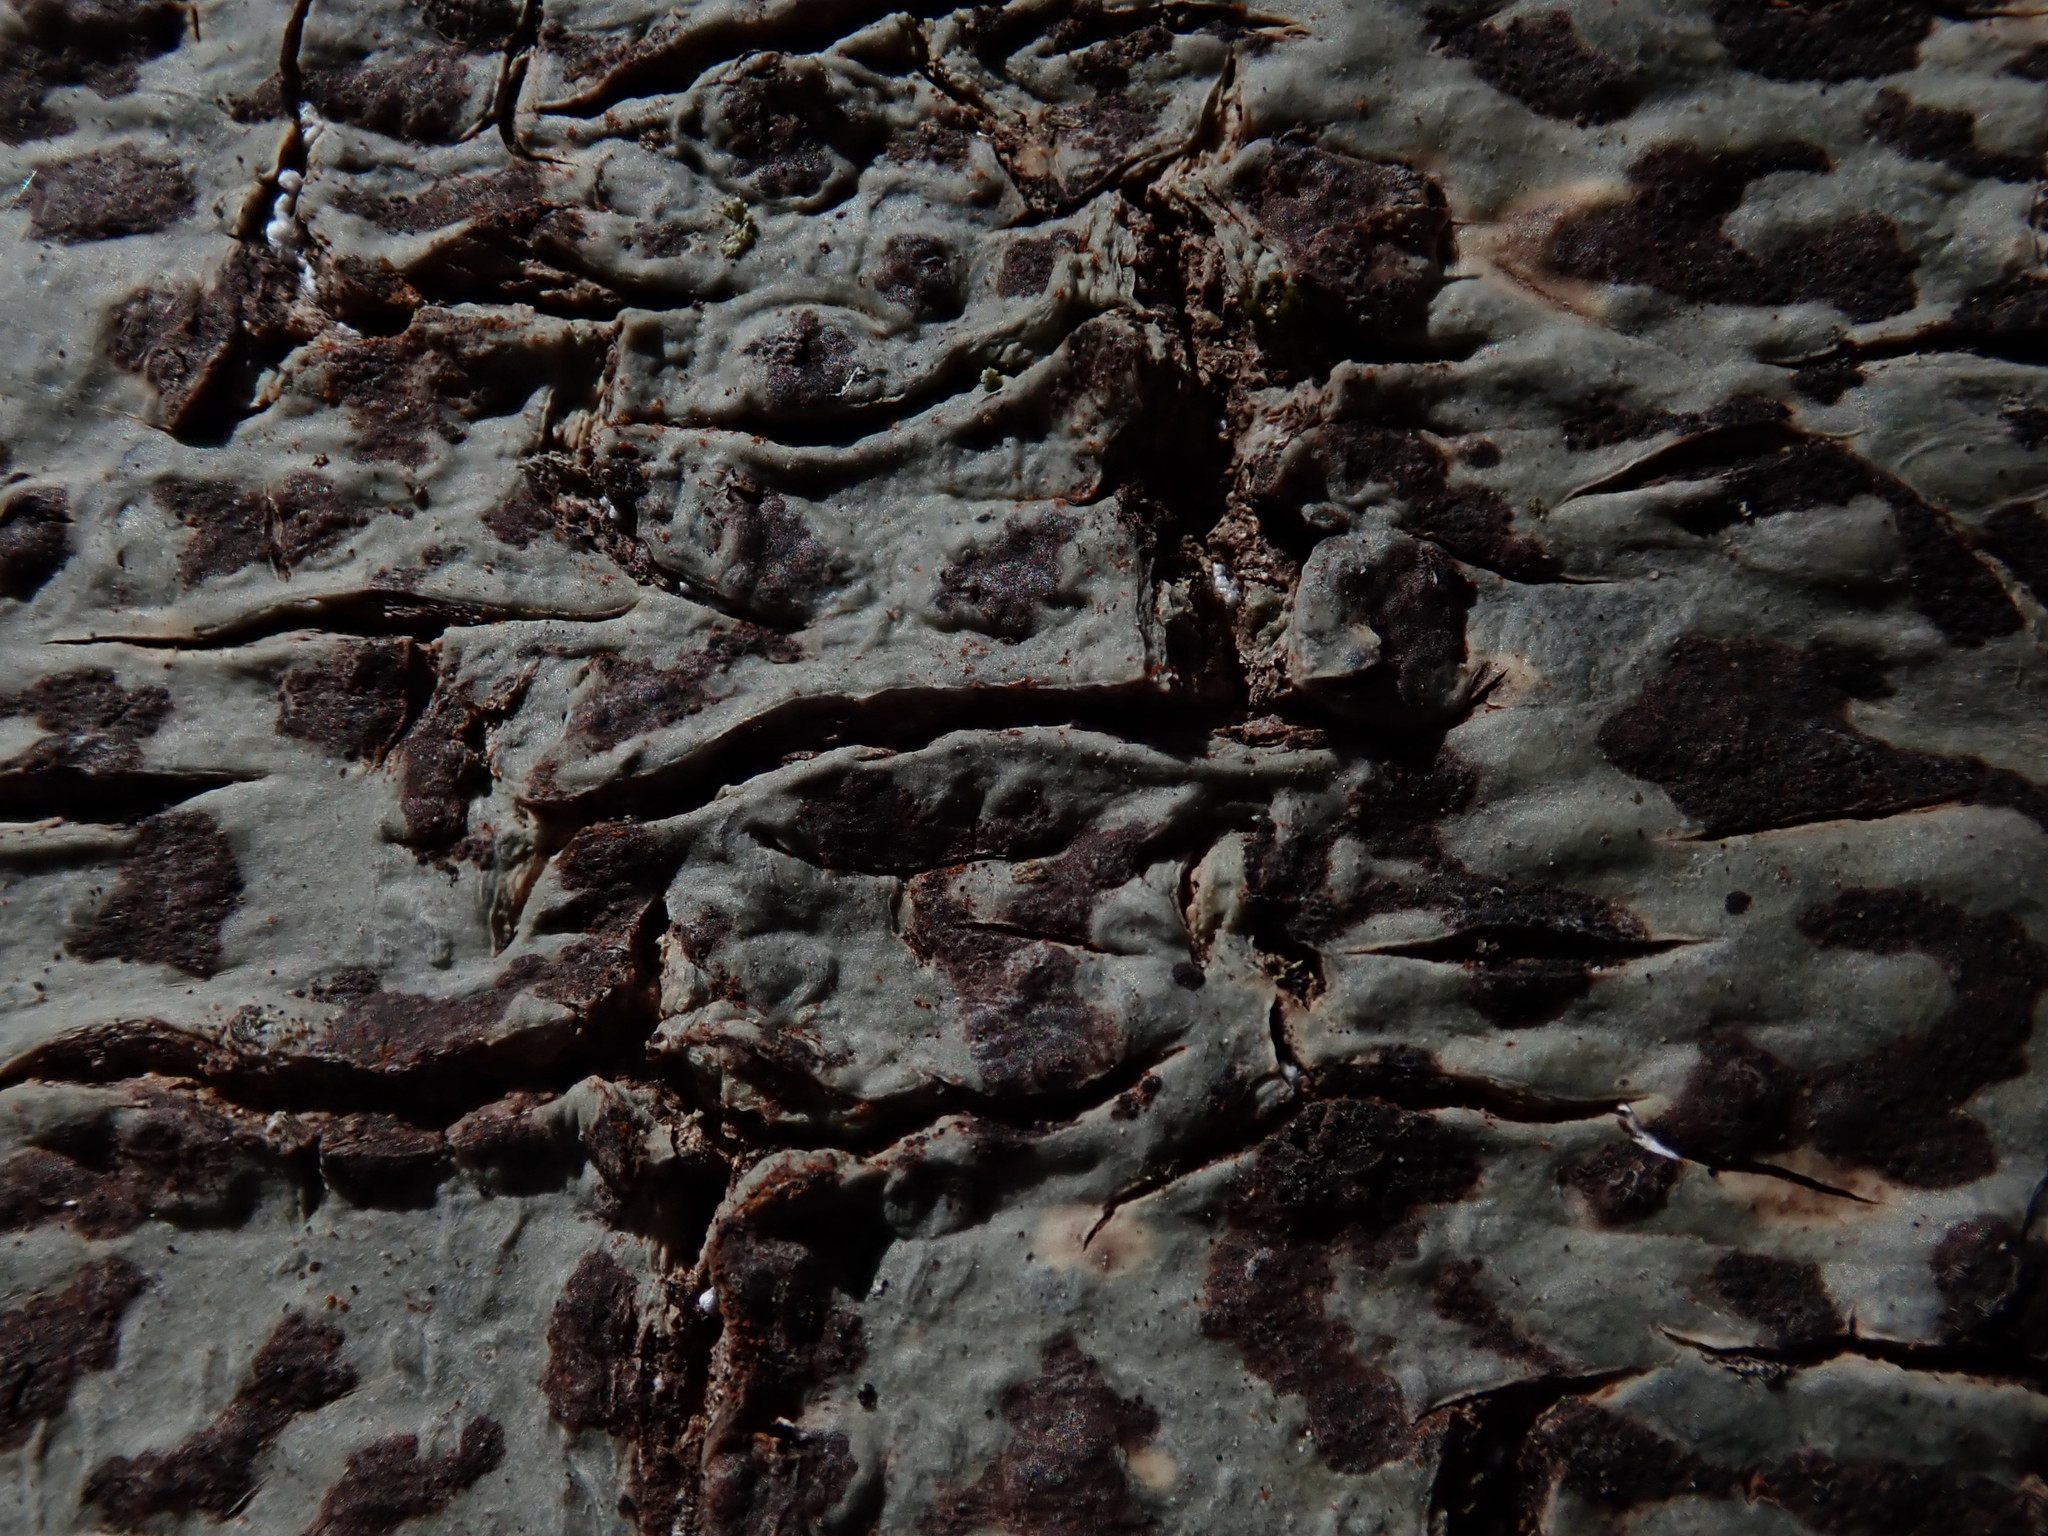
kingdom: Fungi
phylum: Ascomycota
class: Dothideomycetes
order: Trypetheliales
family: Trypetheliaceae
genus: Viridothelium
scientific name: Viridothelium virens
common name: Speckled blister lichen
